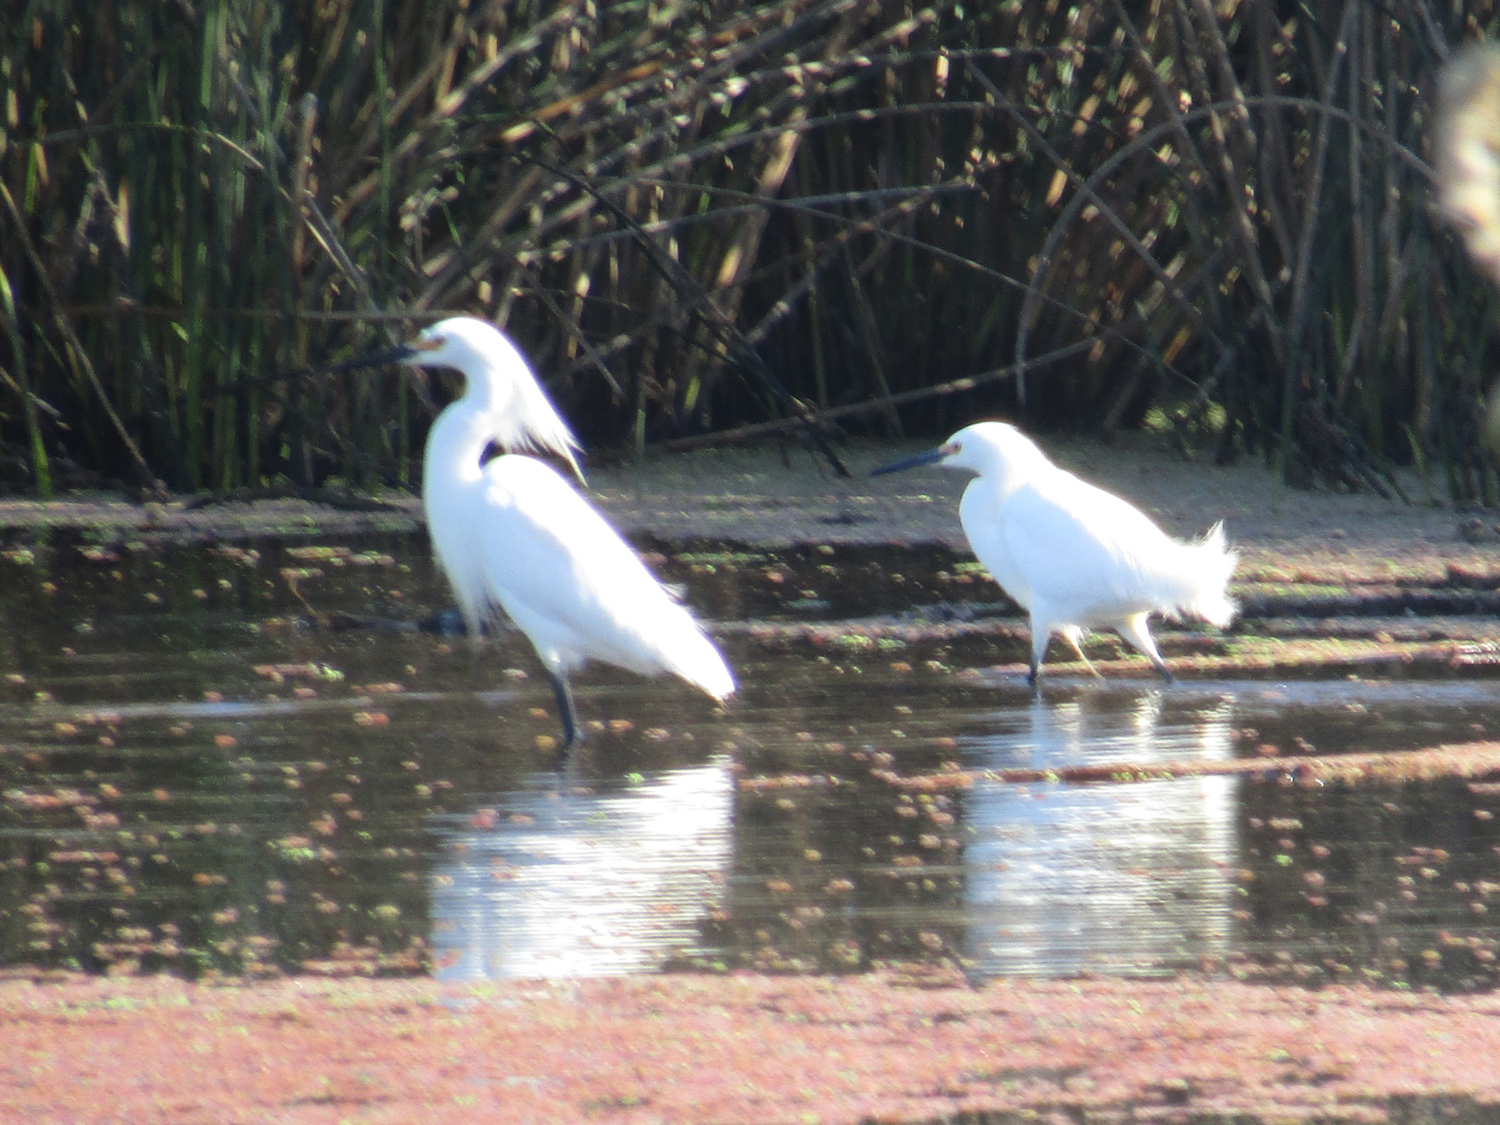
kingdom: Animalia
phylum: Chordata
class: Aves
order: Pelecaniformes
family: Ardeidae
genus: Egretta
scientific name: Egretta thula
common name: Snowy egret
